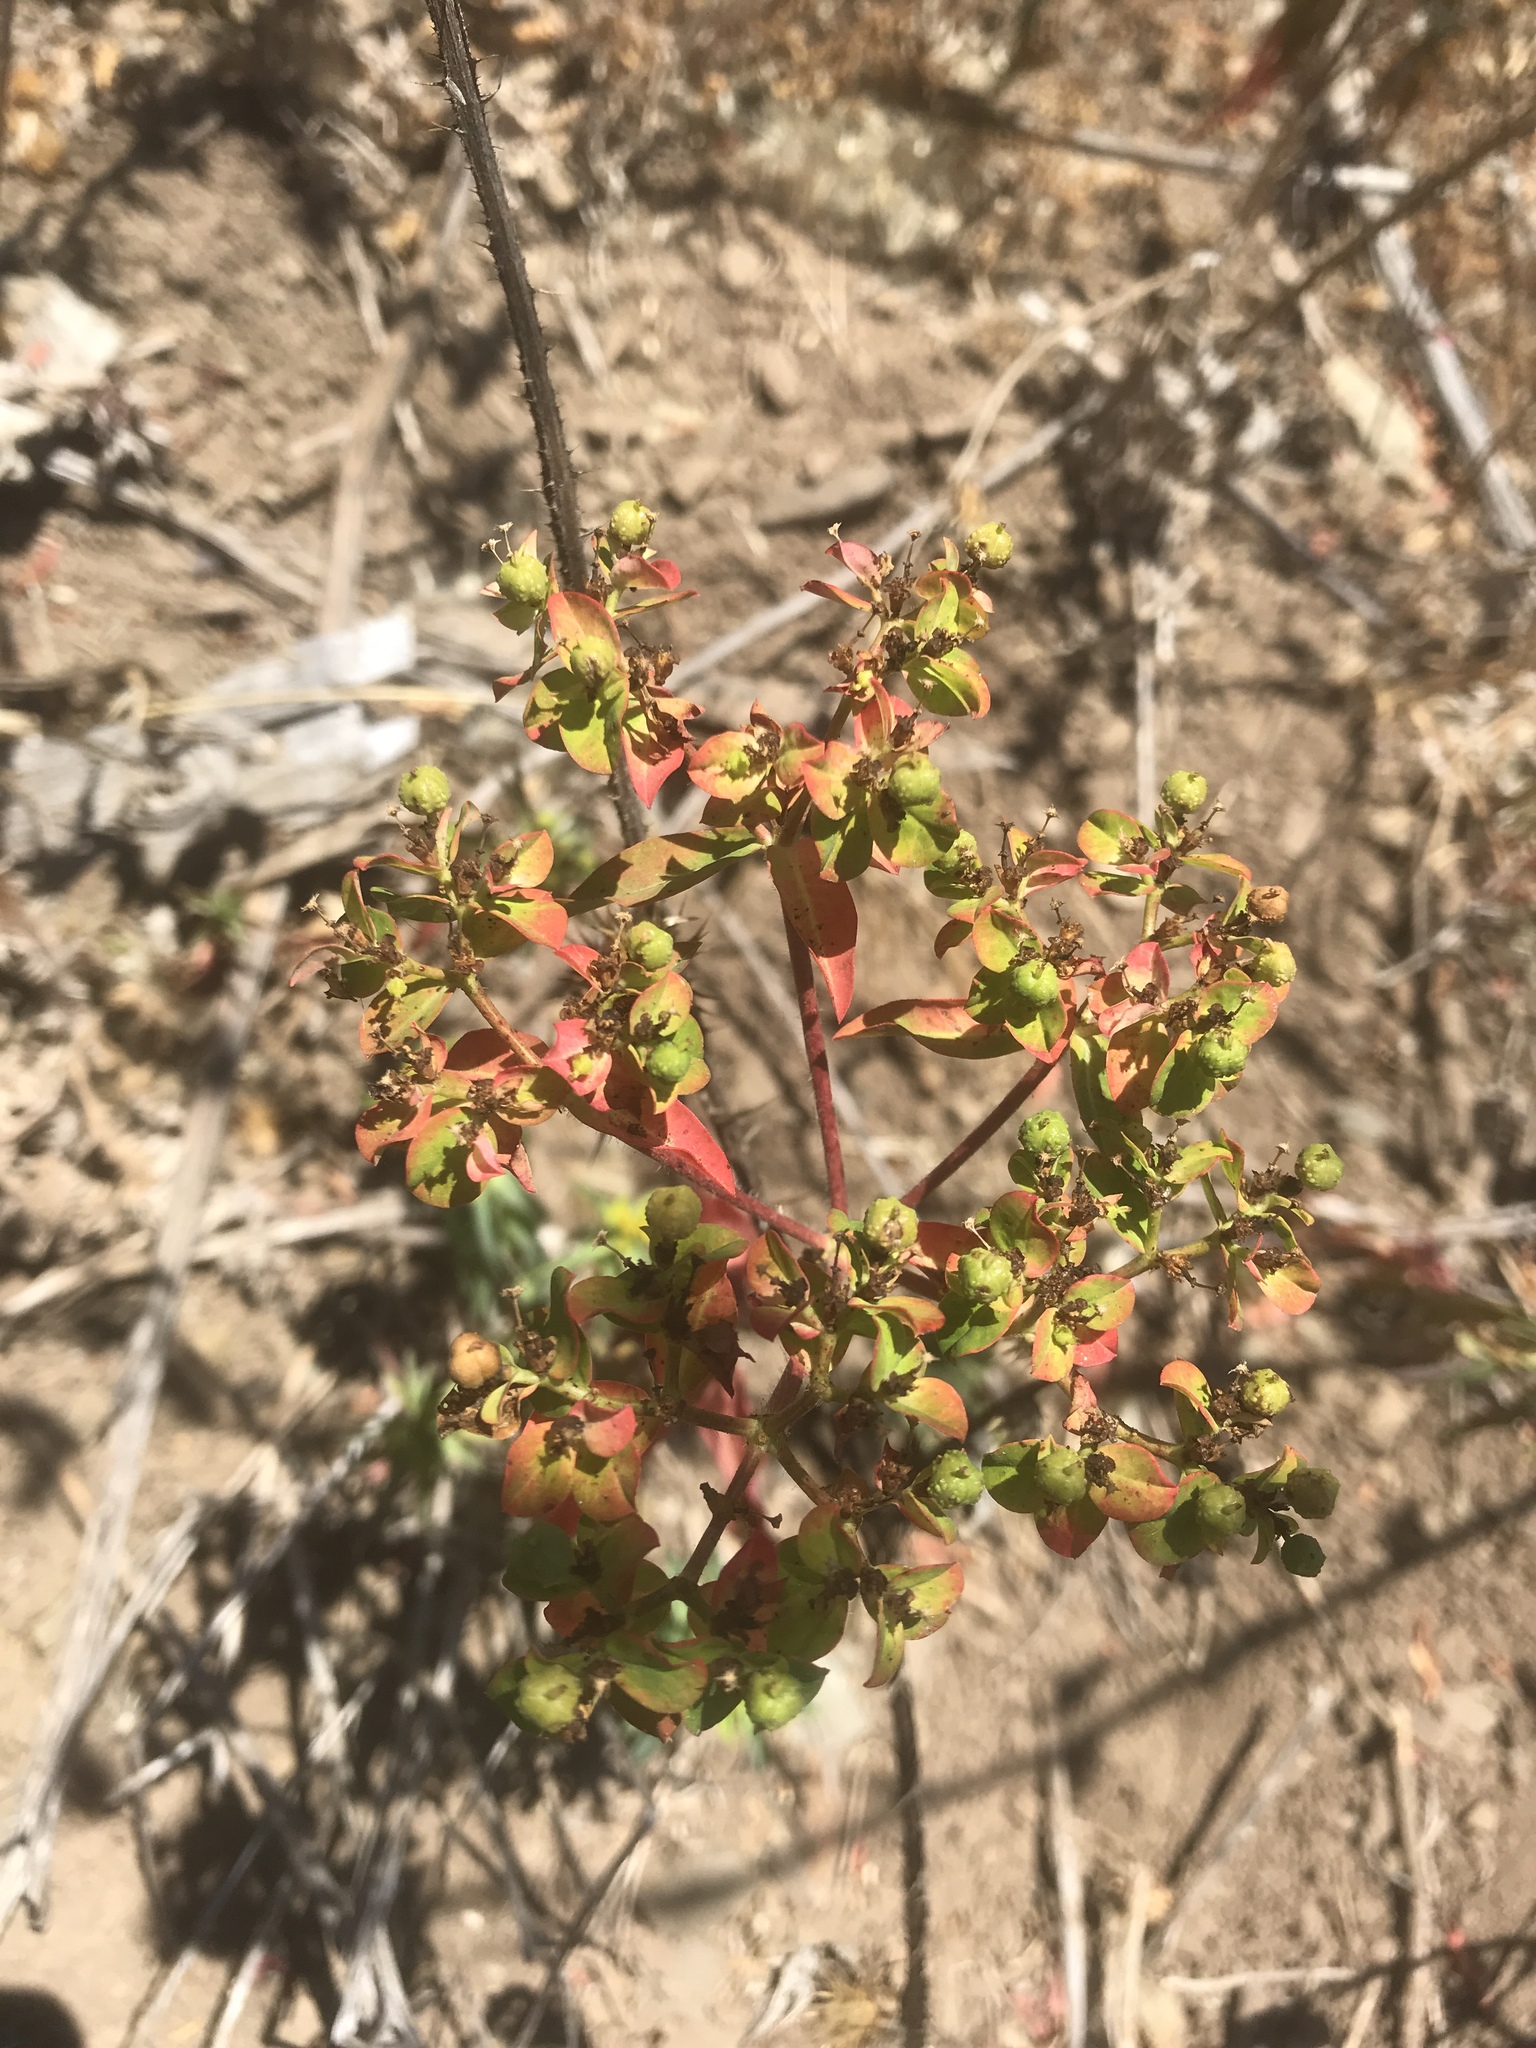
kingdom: Plantae
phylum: Tracheophyta
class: Magnoliopsida
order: Malpighiales
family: Euphorbiaceae
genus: Euphorbia
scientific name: Euphorbia oblongata
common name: Balkan spurge
